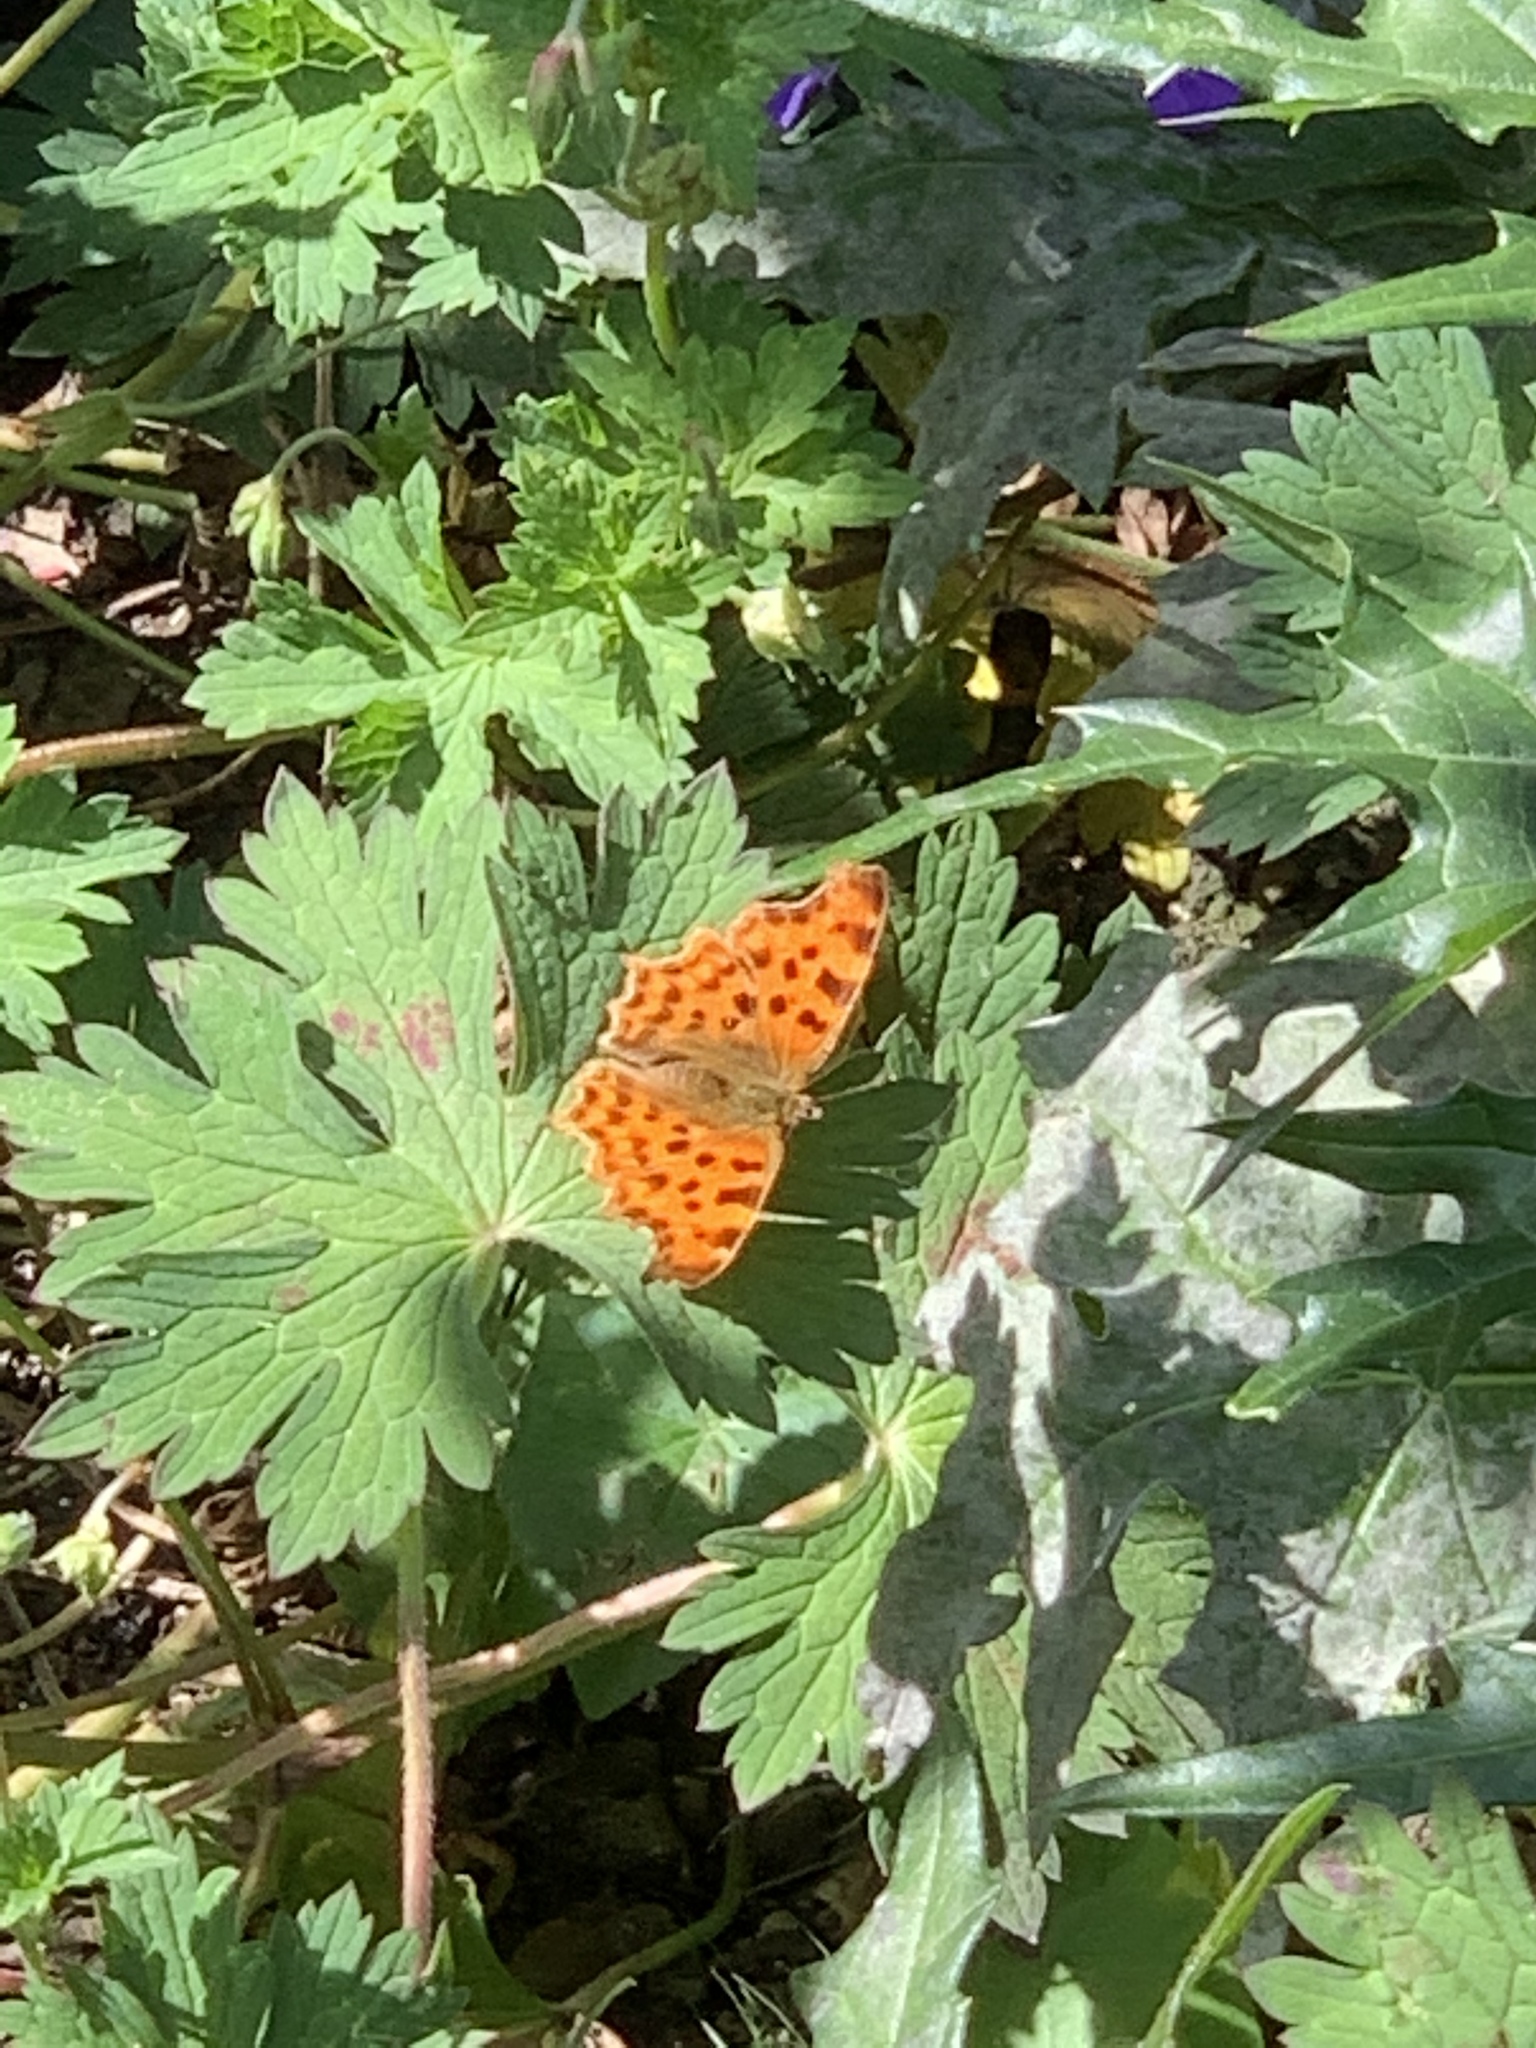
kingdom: Animalia
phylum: Arthropoda
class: Insecta
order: Lepidoptera
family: Nymphalidae
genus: Polygonia
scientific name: Polygonia c-album
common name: Comma
